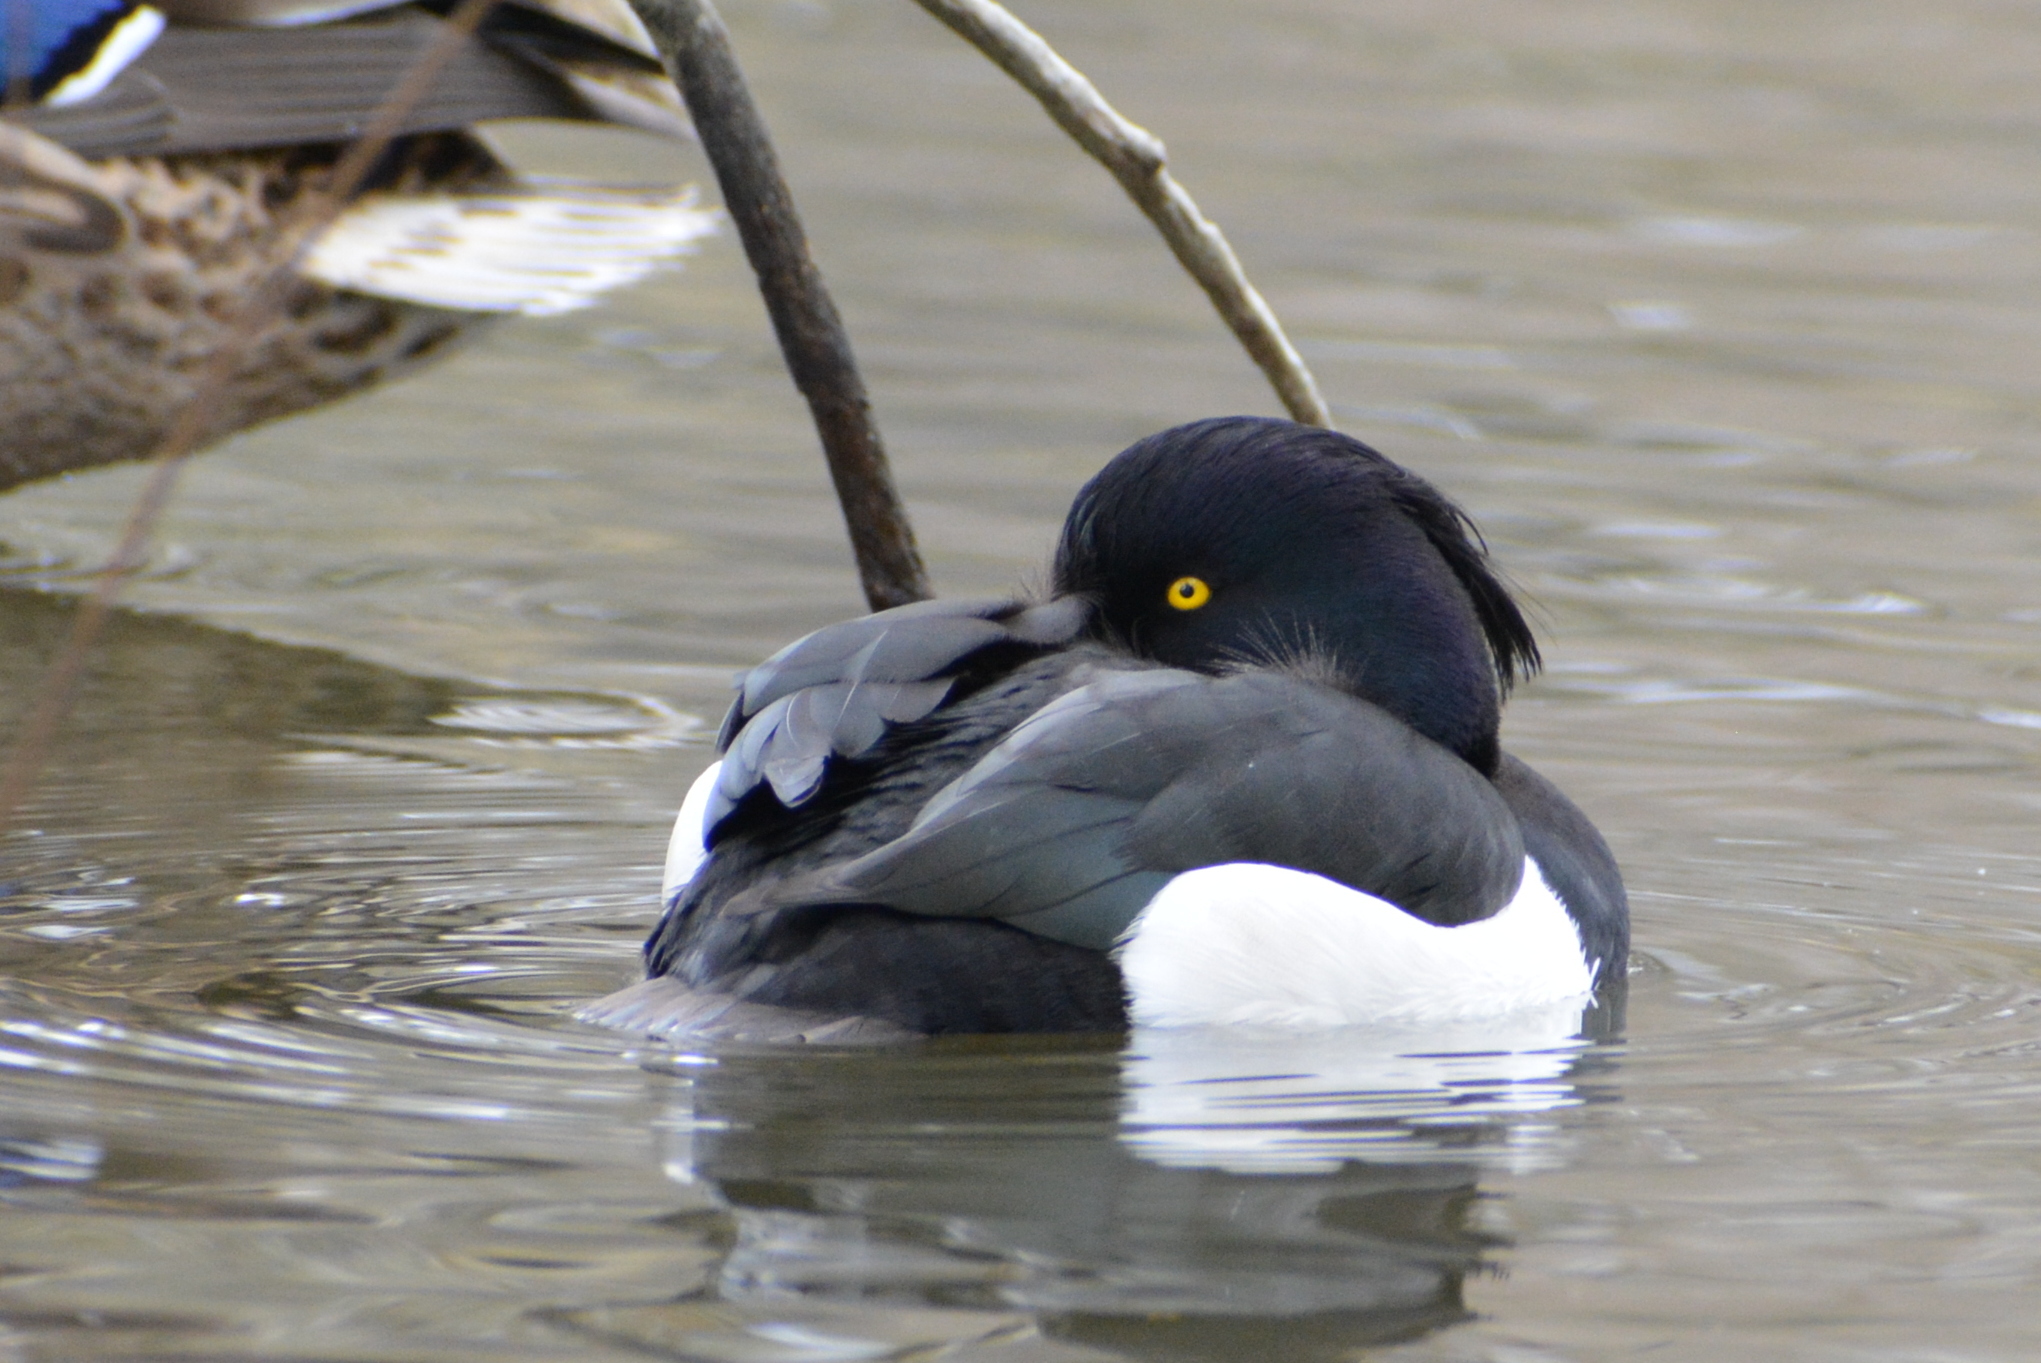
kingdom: Animalia
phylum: Chordata
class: Aves
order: Anseriformes
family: Anatidae
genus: Aythya
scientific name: Aythya fuligula
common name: Tufted duck
